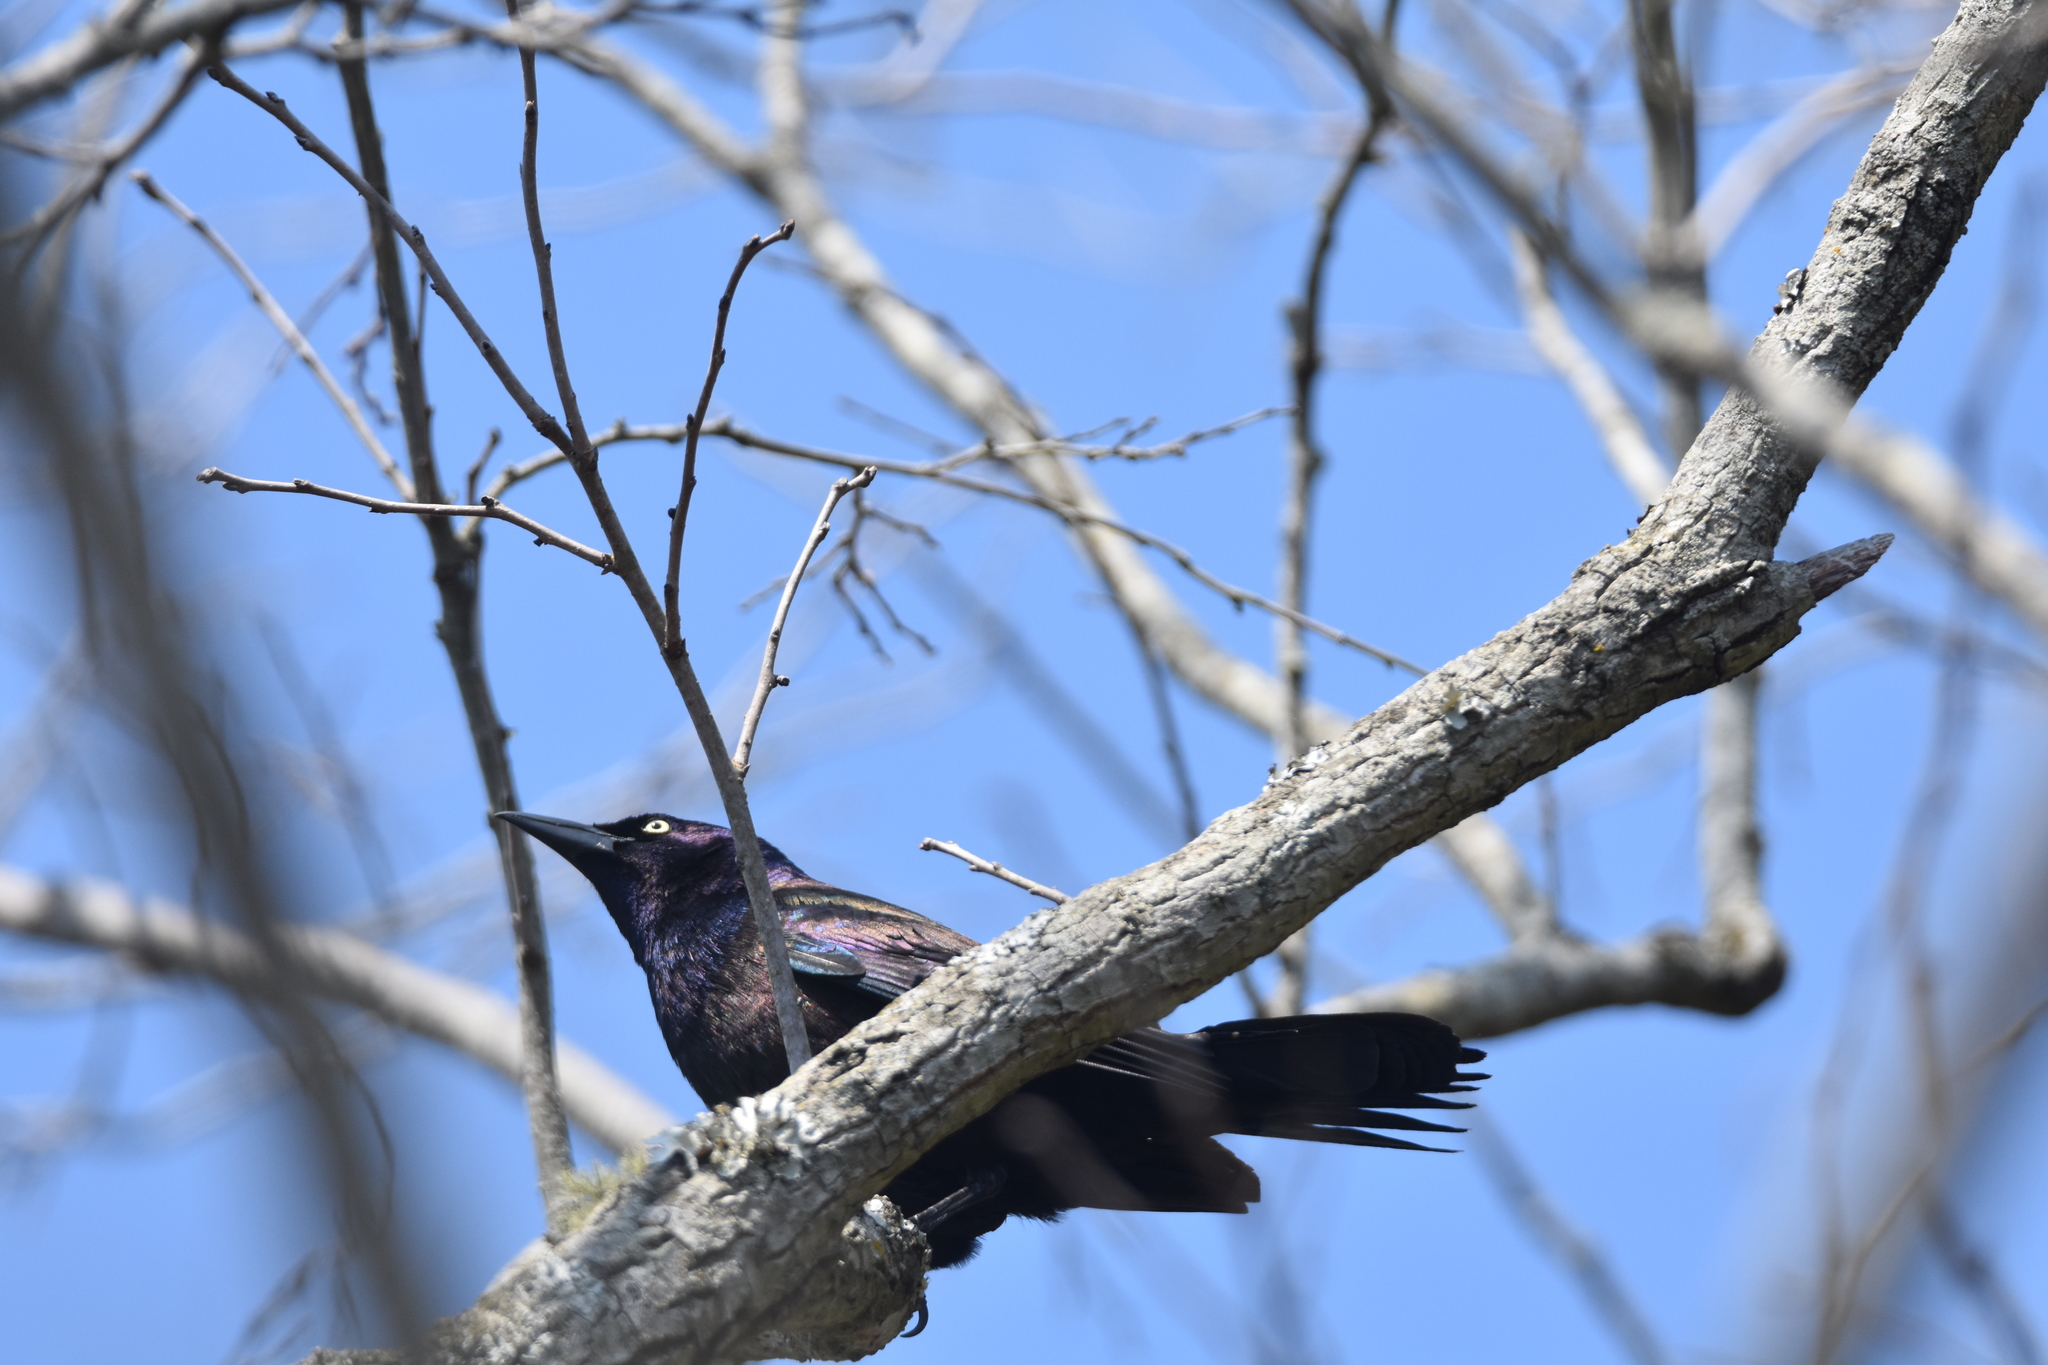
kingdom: Animalia
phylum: Chordata
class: Aves
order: Passeriformes
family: Icteridae
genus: Quiscalus
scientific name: Quiscalus quiscula
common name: Common grackle
